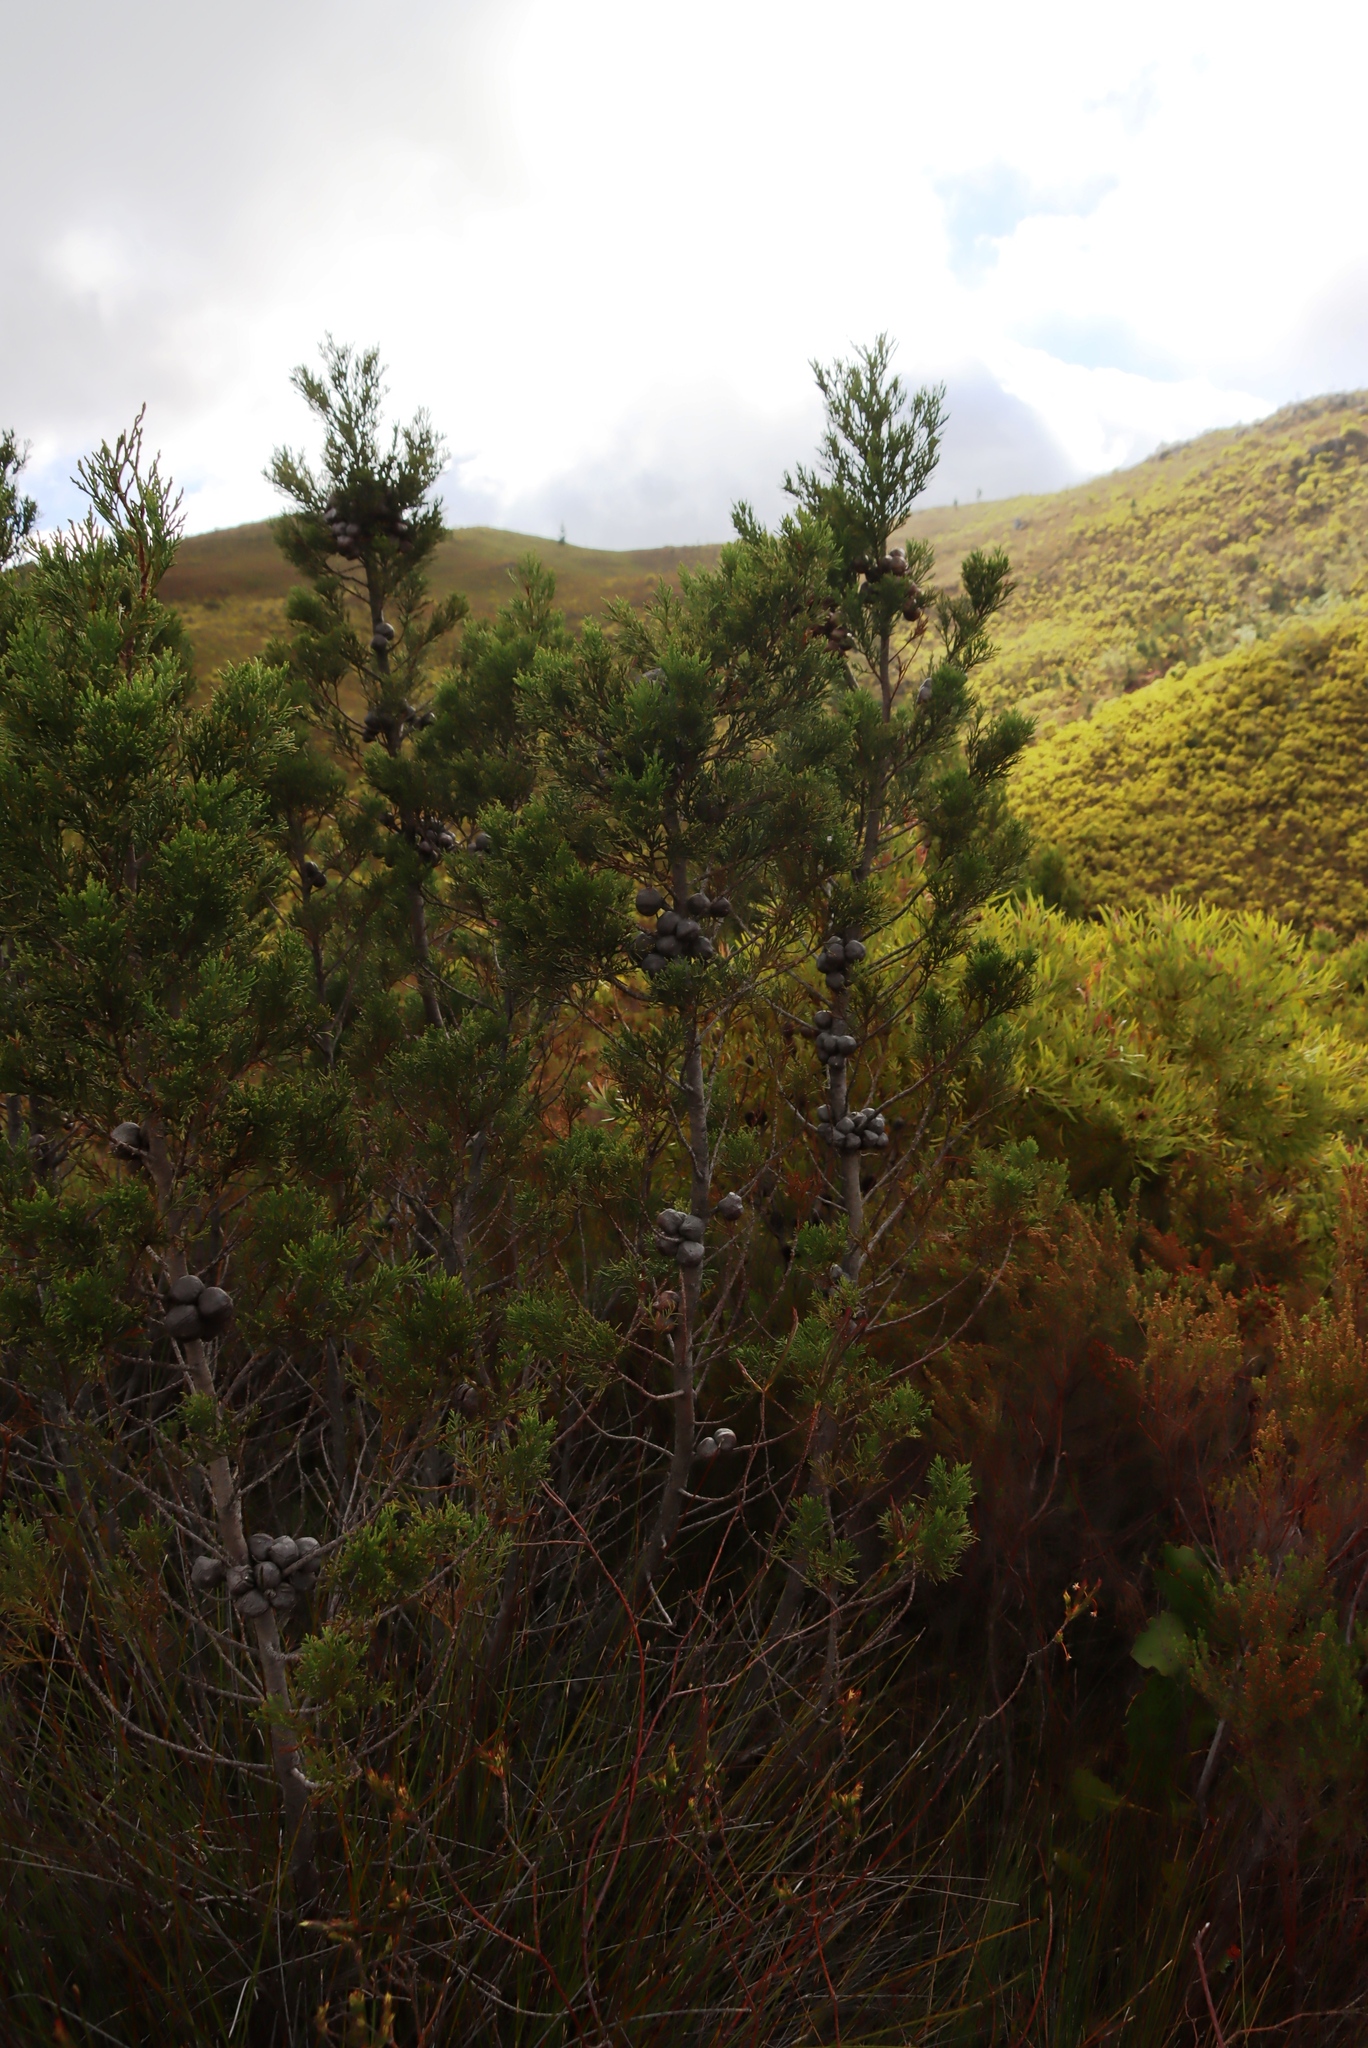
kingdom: Plantae
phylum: Tracheophyta
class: Pinopsida
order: Pinales
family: Cupressaceae
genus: Widdringtonia
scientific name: Widdringtonia nodiflora
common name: Cape cypress
